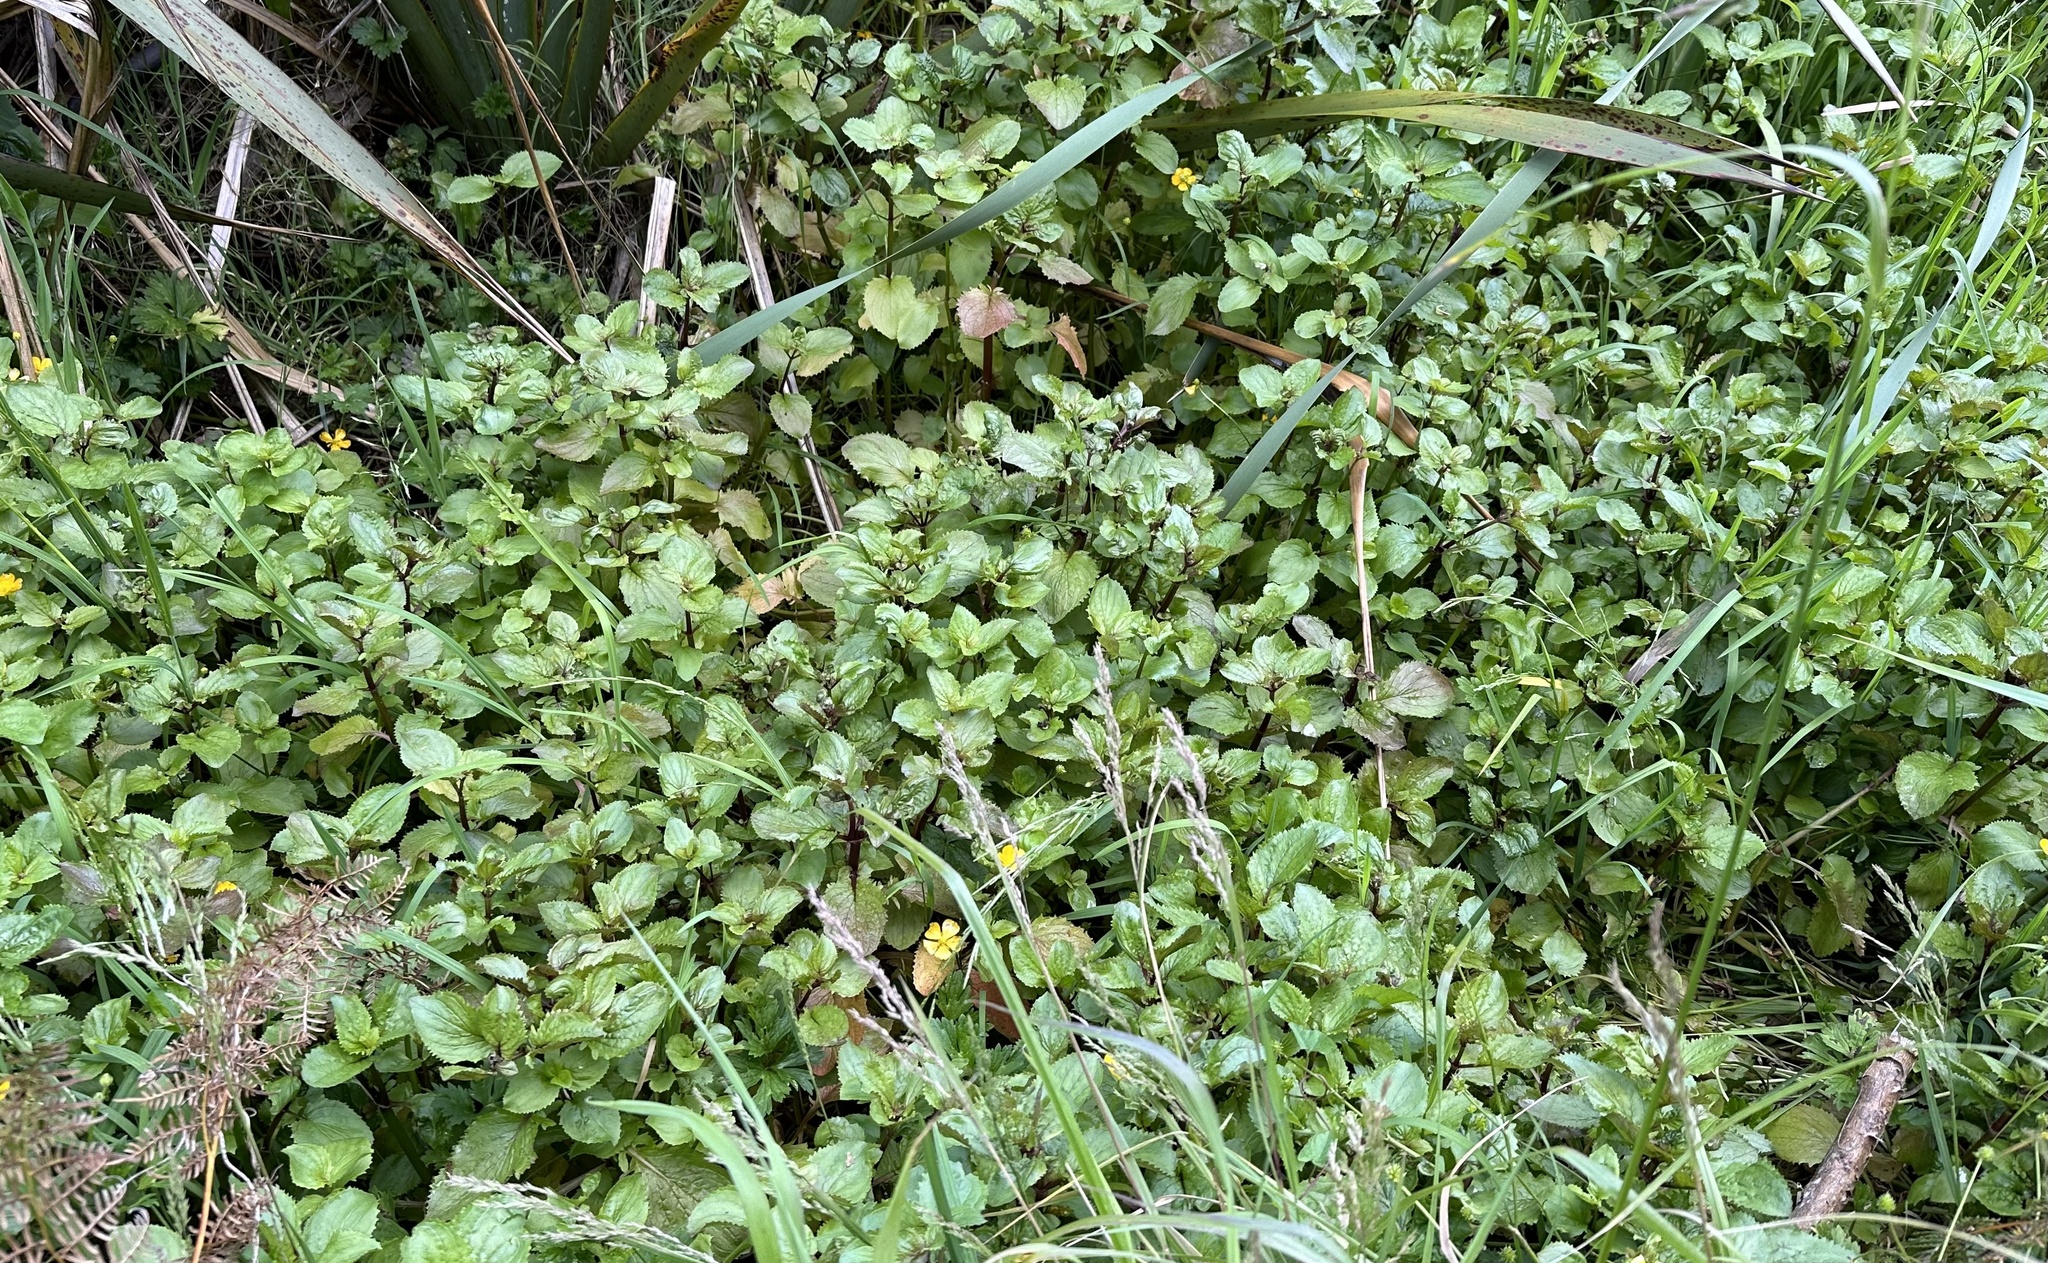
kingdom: Plantae
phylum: Tracheophyta
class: Magnoliopsida
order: Lamiales
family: Phrymaceae
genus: Erythranthe
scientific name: Erythranthe guttata
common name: Monkeyflower
